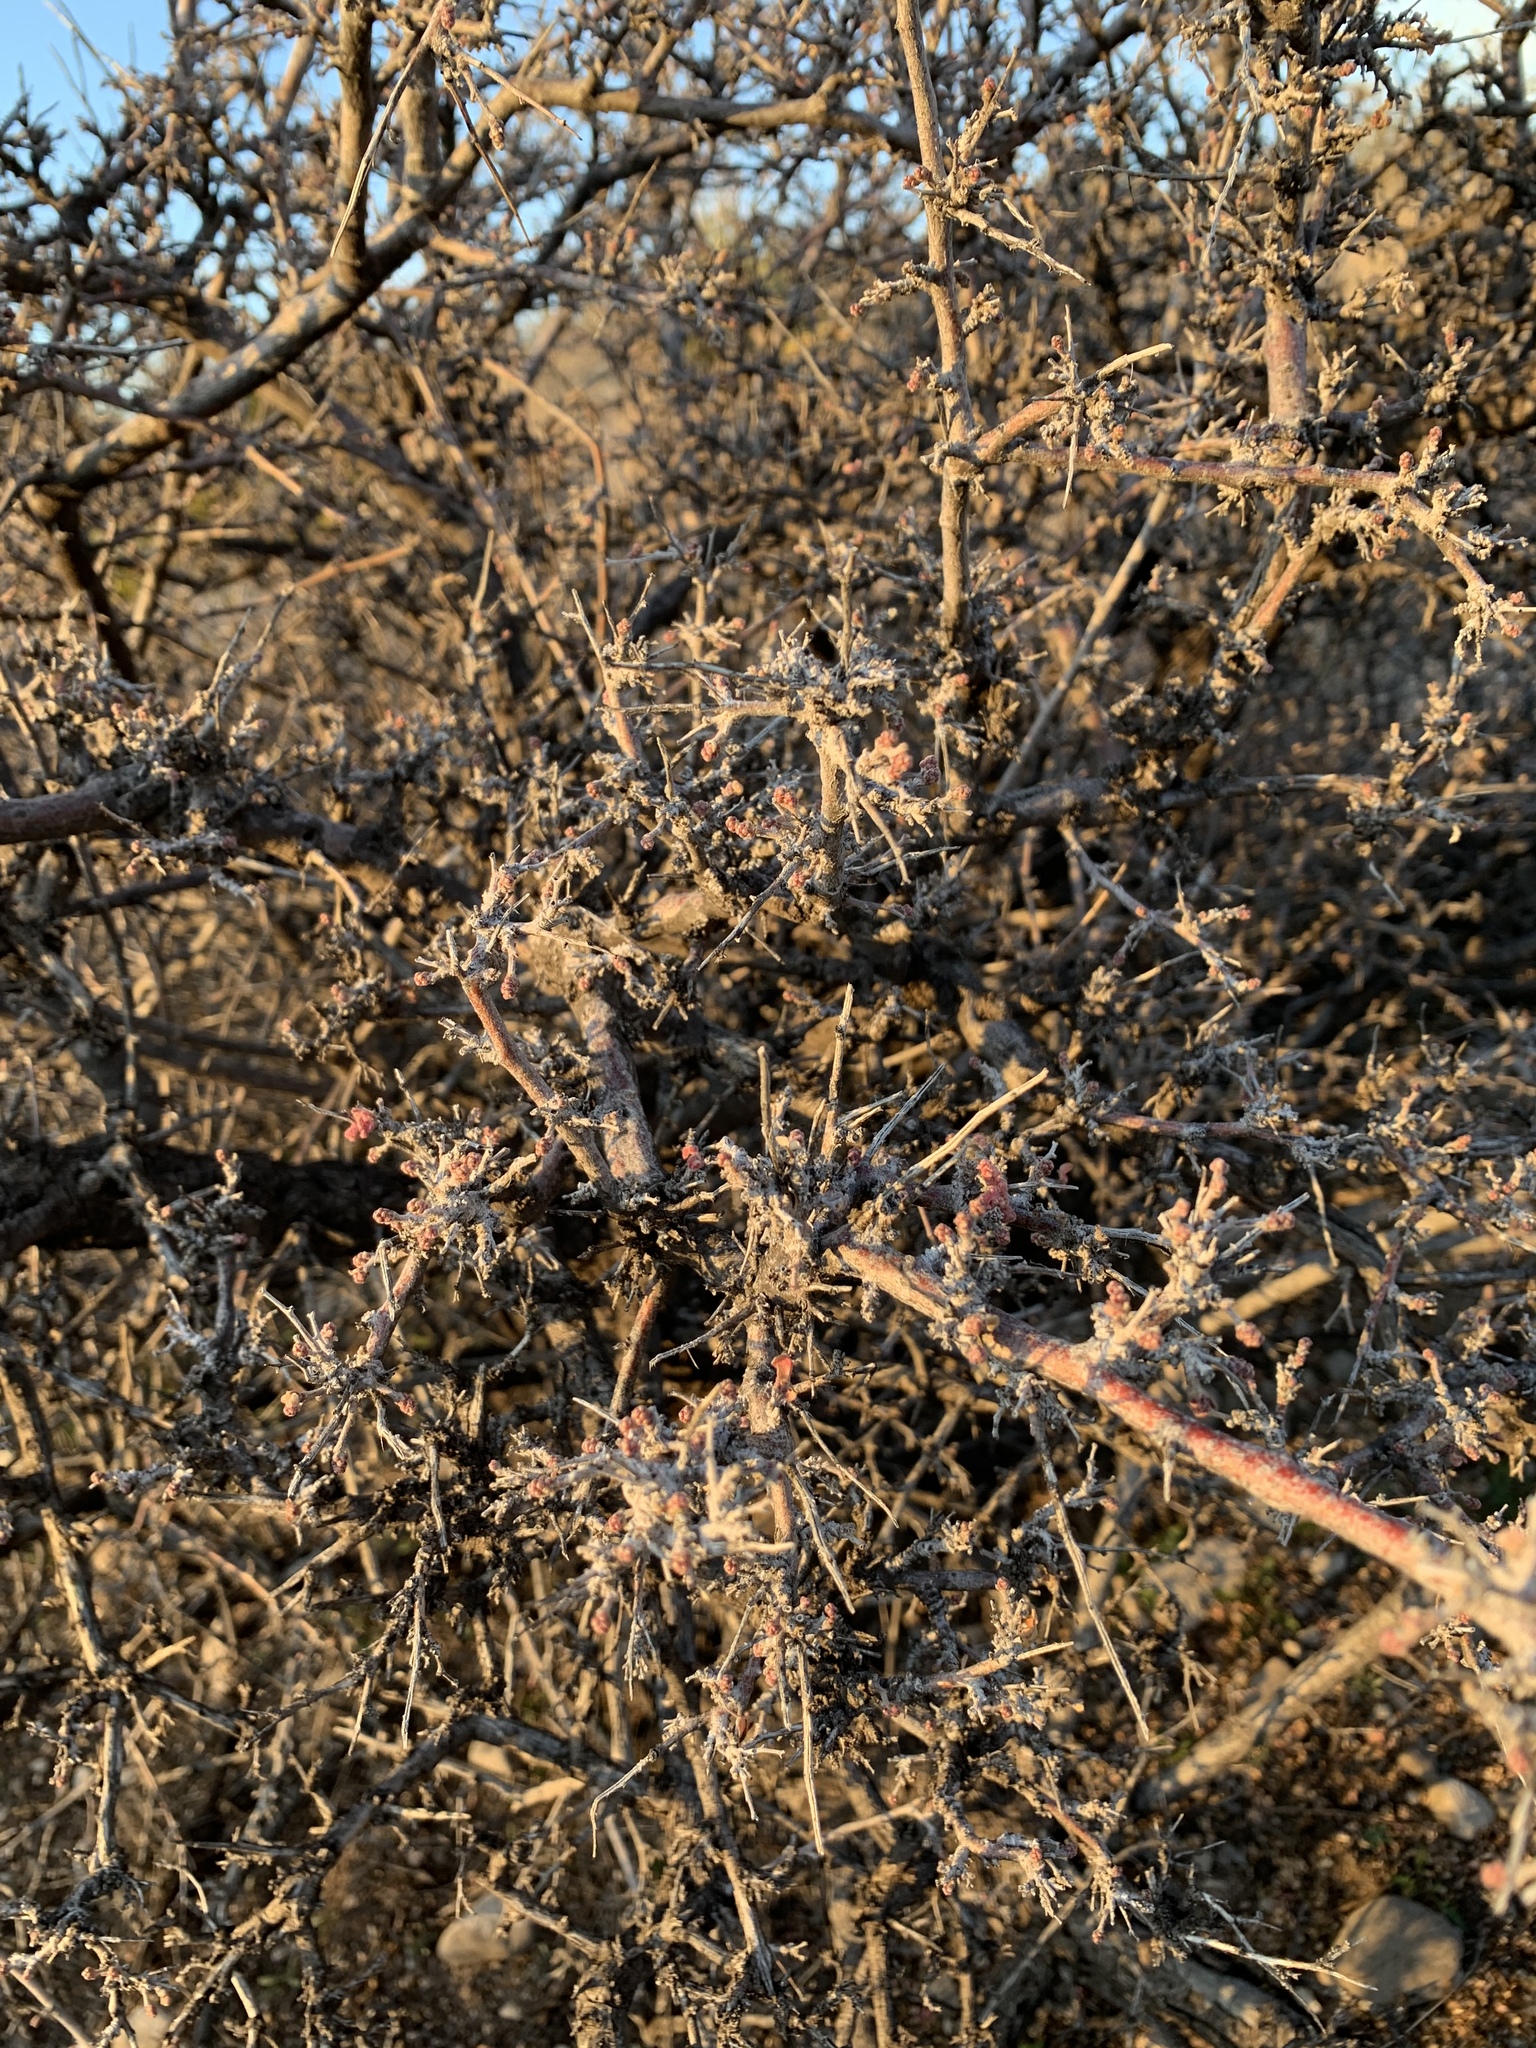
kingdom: Plantae
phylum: Tracheophyta
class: Magnoliopsida
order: Sapindales
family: Anacardiaceae
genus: Rhus
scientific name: Rhus microphylla
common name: Desert sumac
